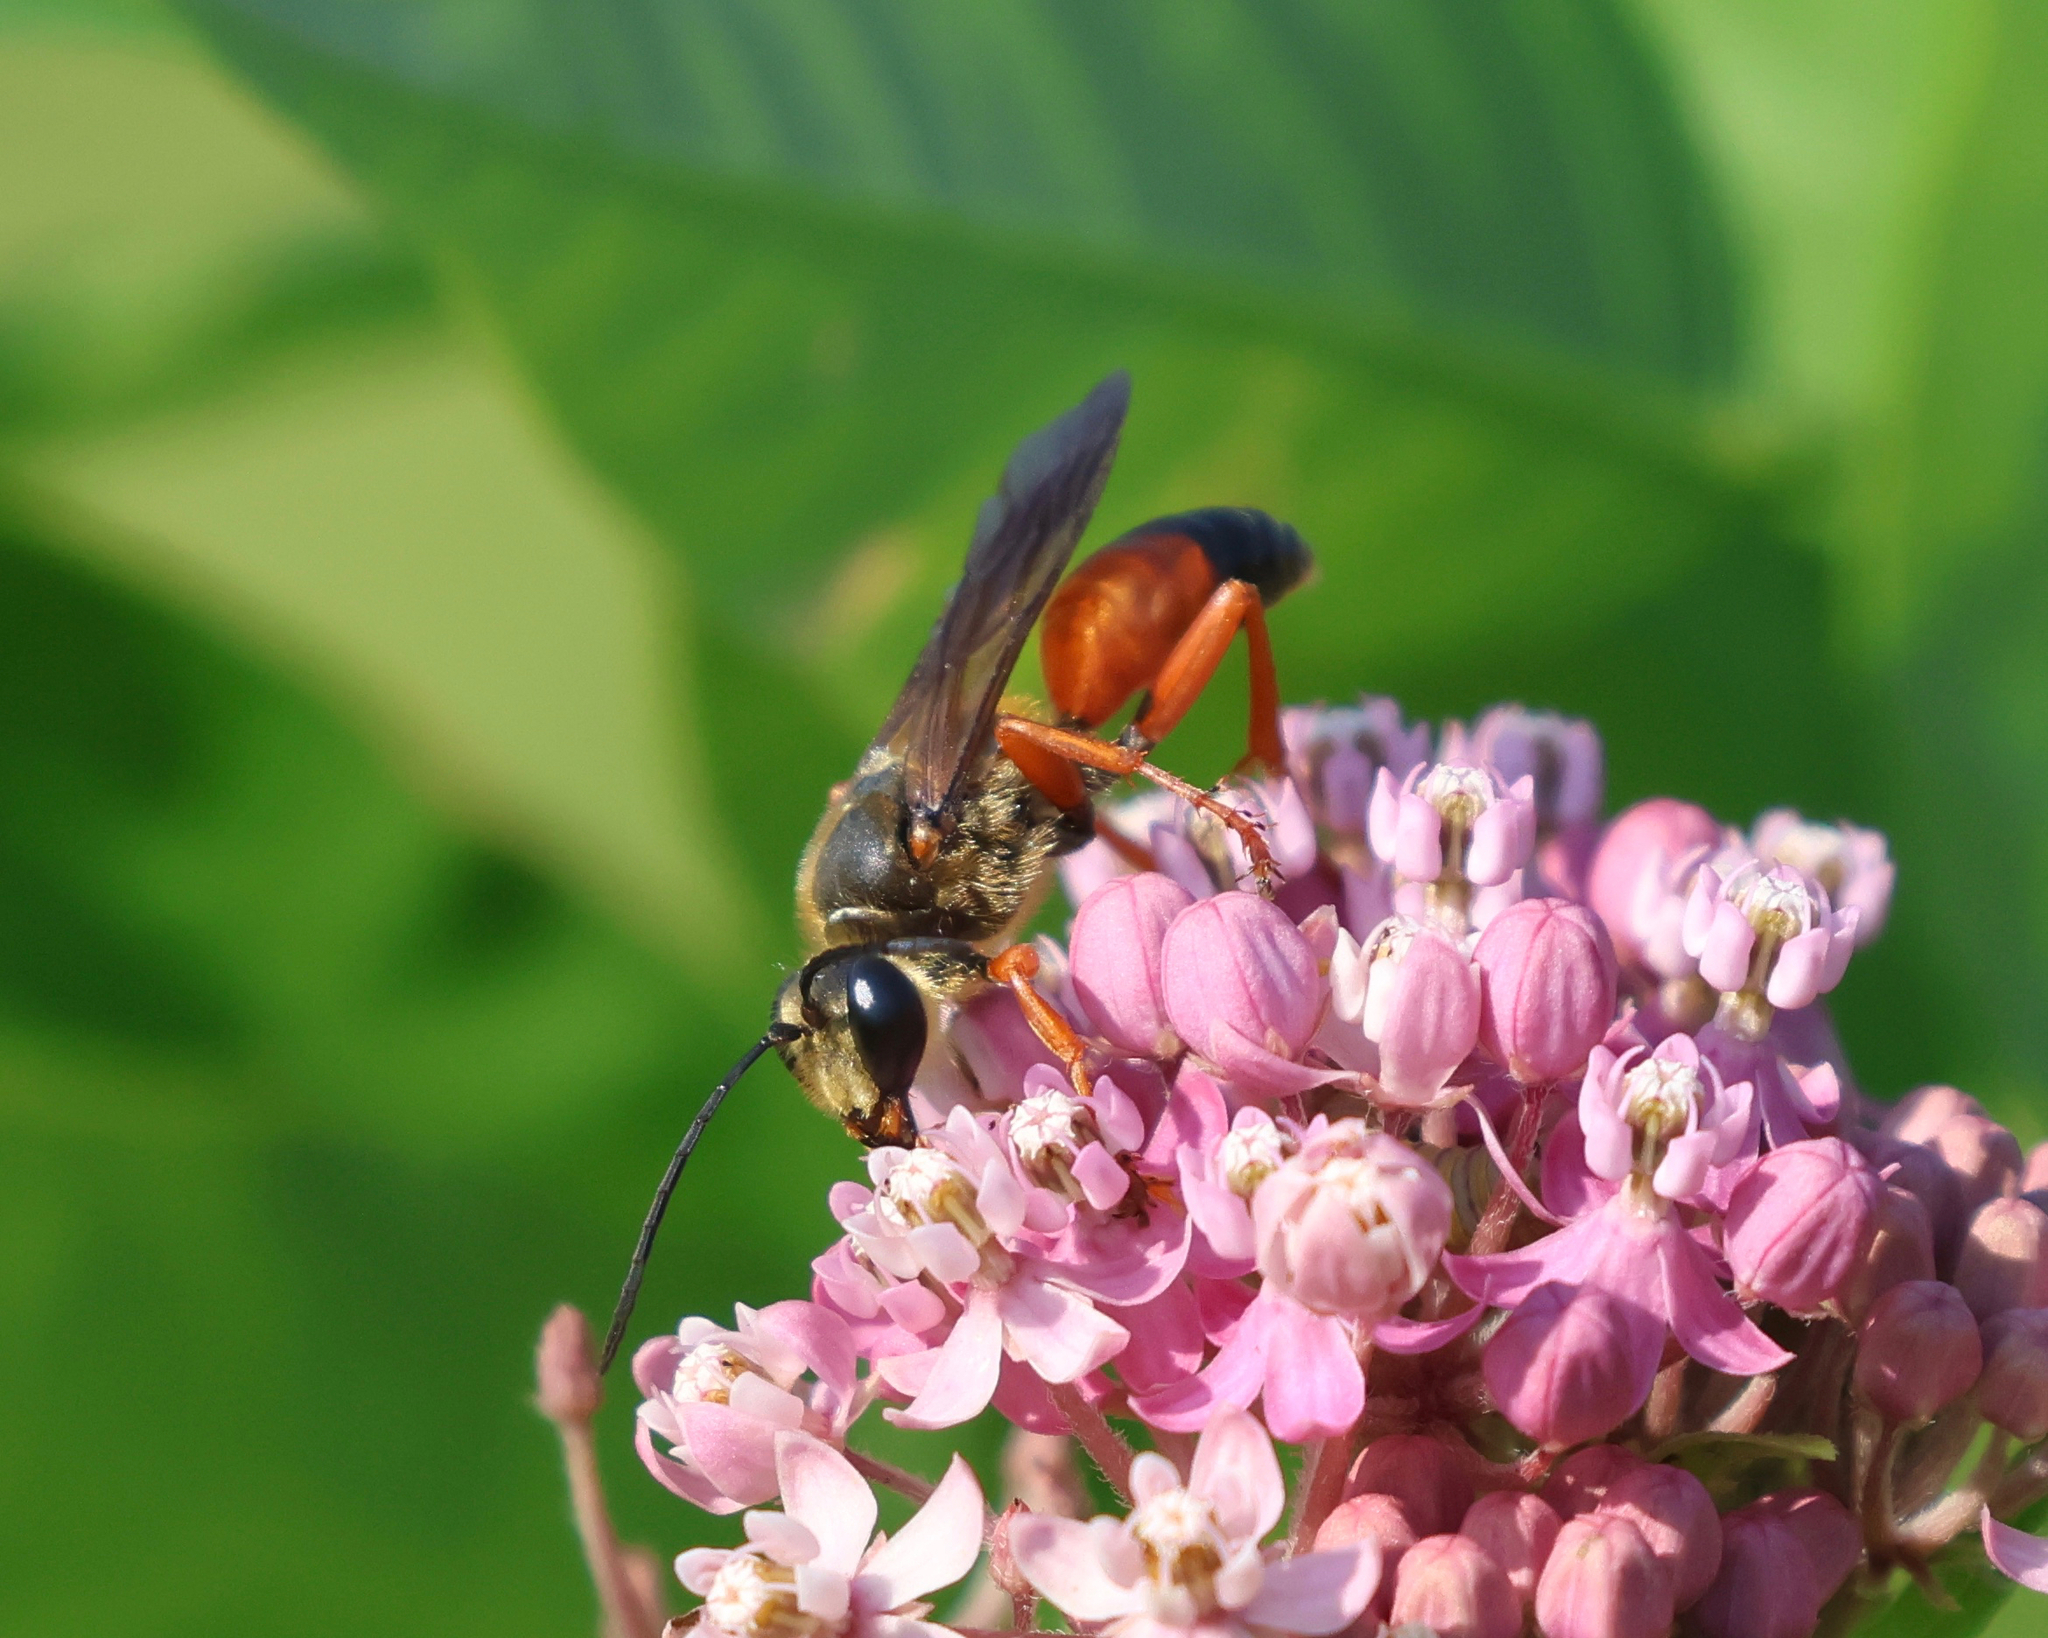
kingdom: Animalia
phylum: Arthropoda
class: Insecta
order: Hymenoptera
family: Sphecidae
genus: Sphex
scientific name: Sphex ichneumoneus
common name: Great golden digger wasp
